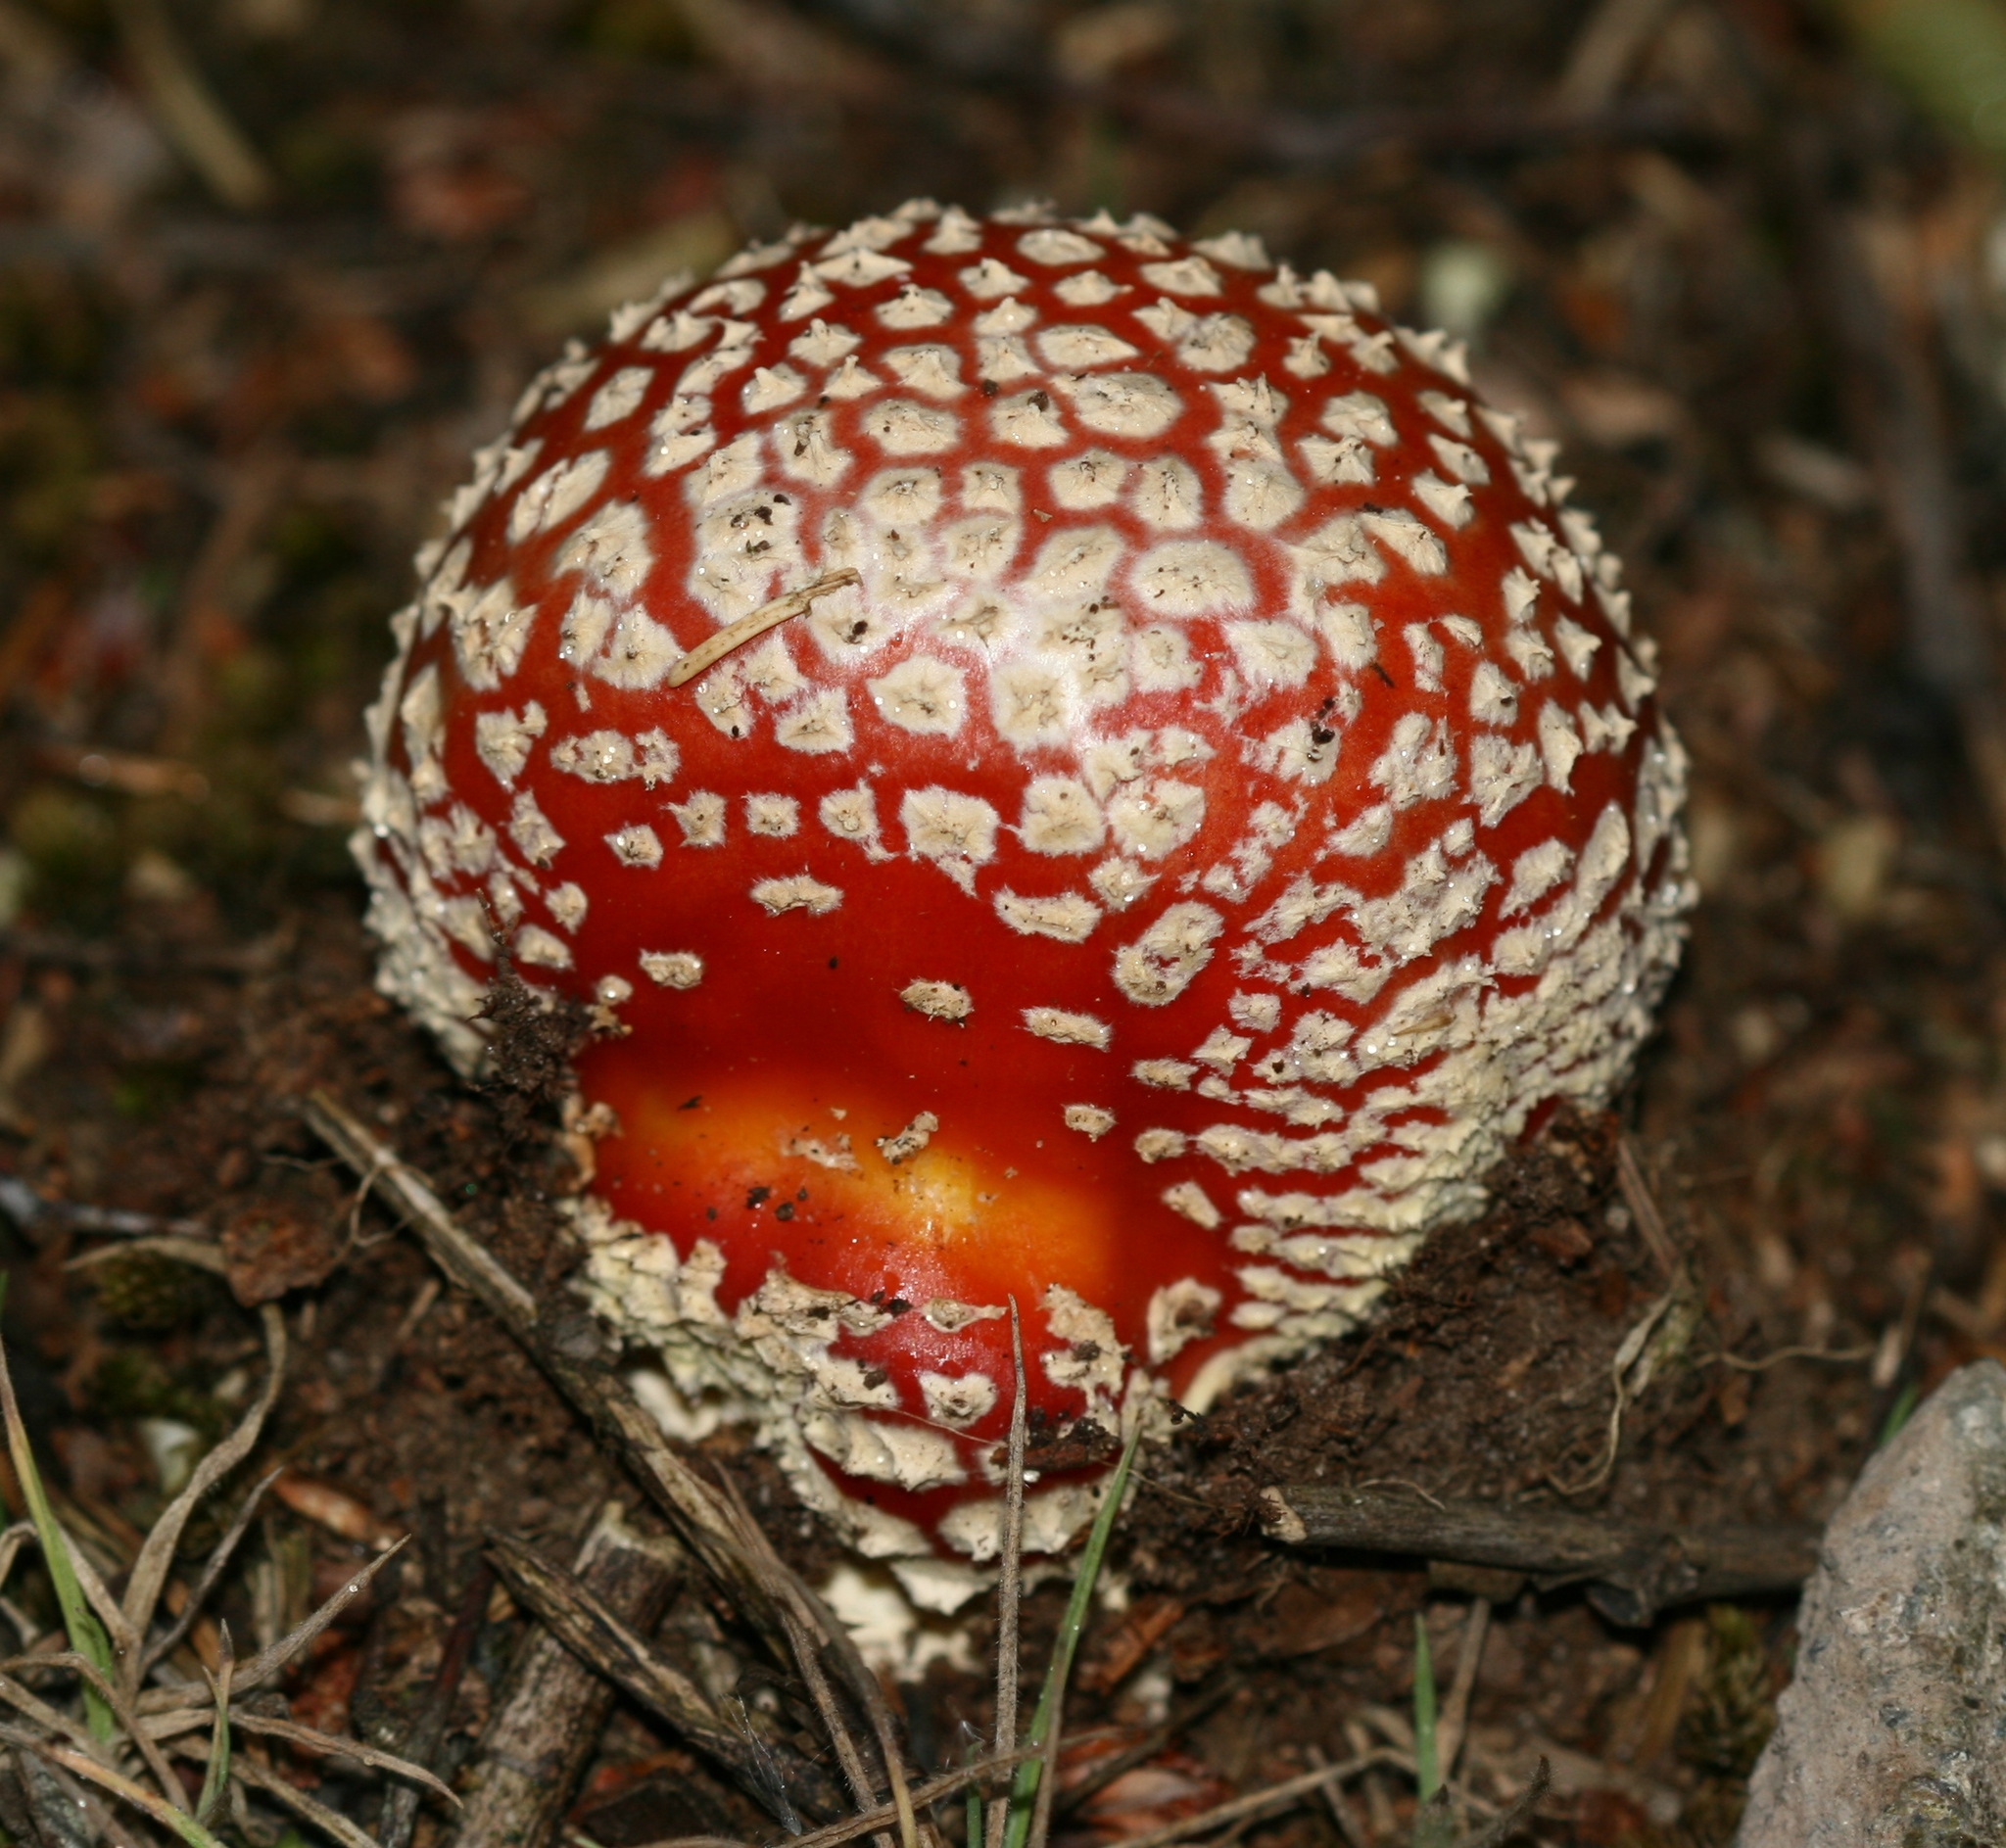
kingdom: Fungi
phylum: Basidiomycota
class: Agaricomycetes
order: Agaricales
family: Amanitaceae
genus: Amanita
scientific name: Amanita muscaria
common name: Fly agaric
